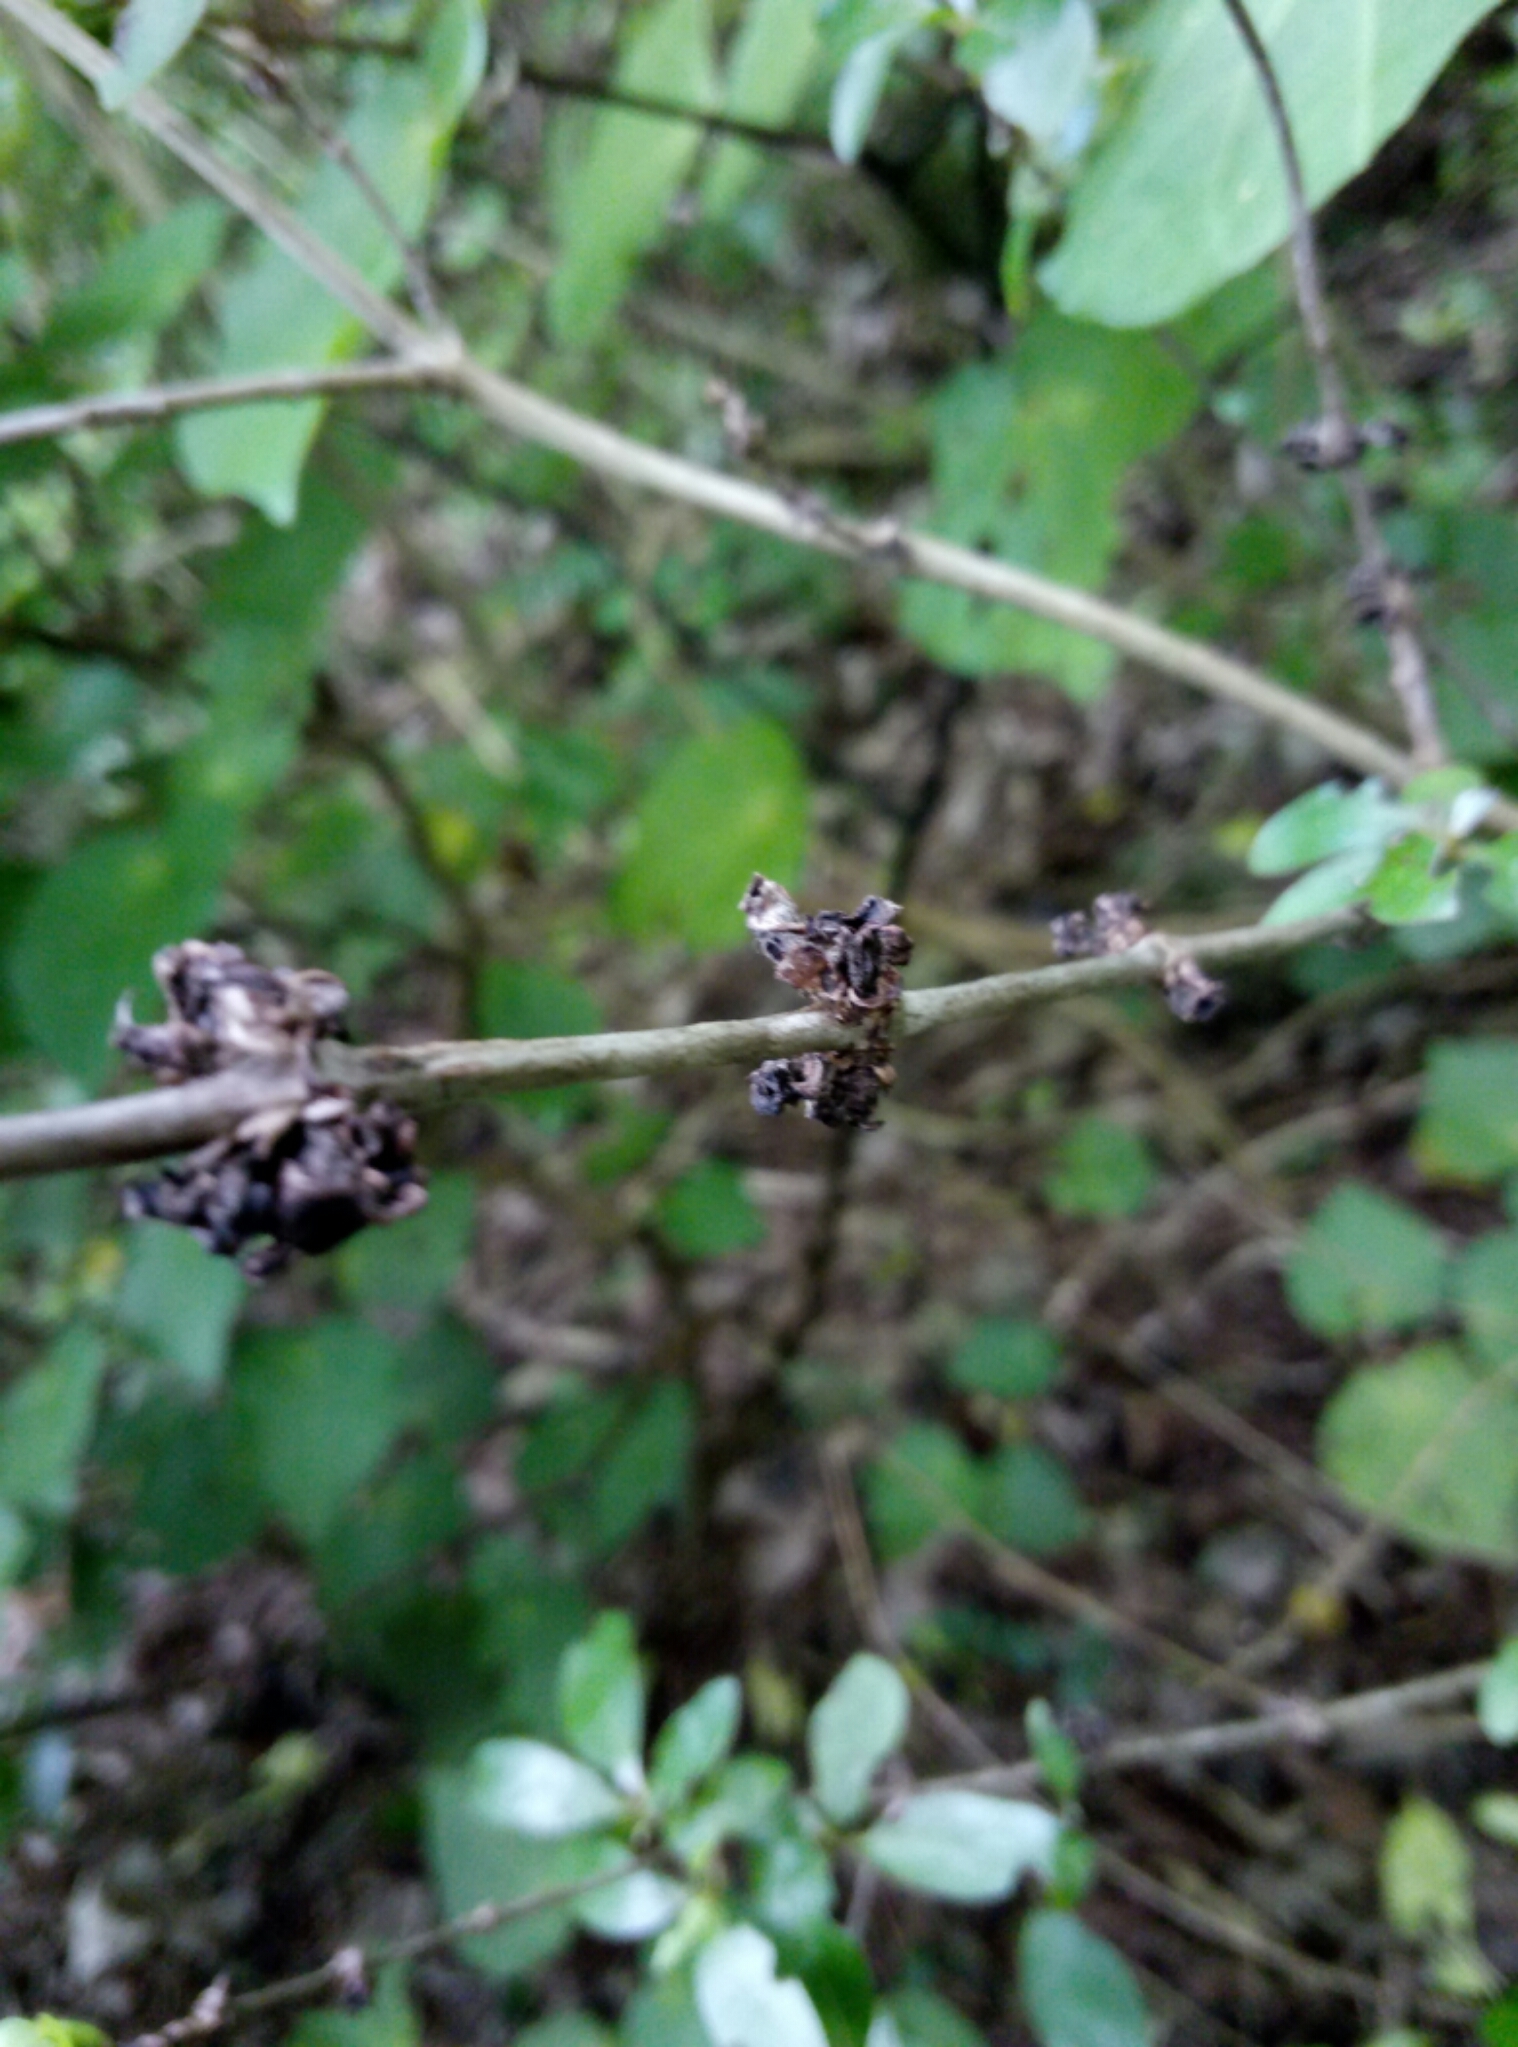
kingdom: Plantae
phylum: Tracheophyta
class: Magnoliopsida
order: Gentianales
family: Rubiaceae
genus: Coprosma
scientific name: Coprosma cunninghamii
